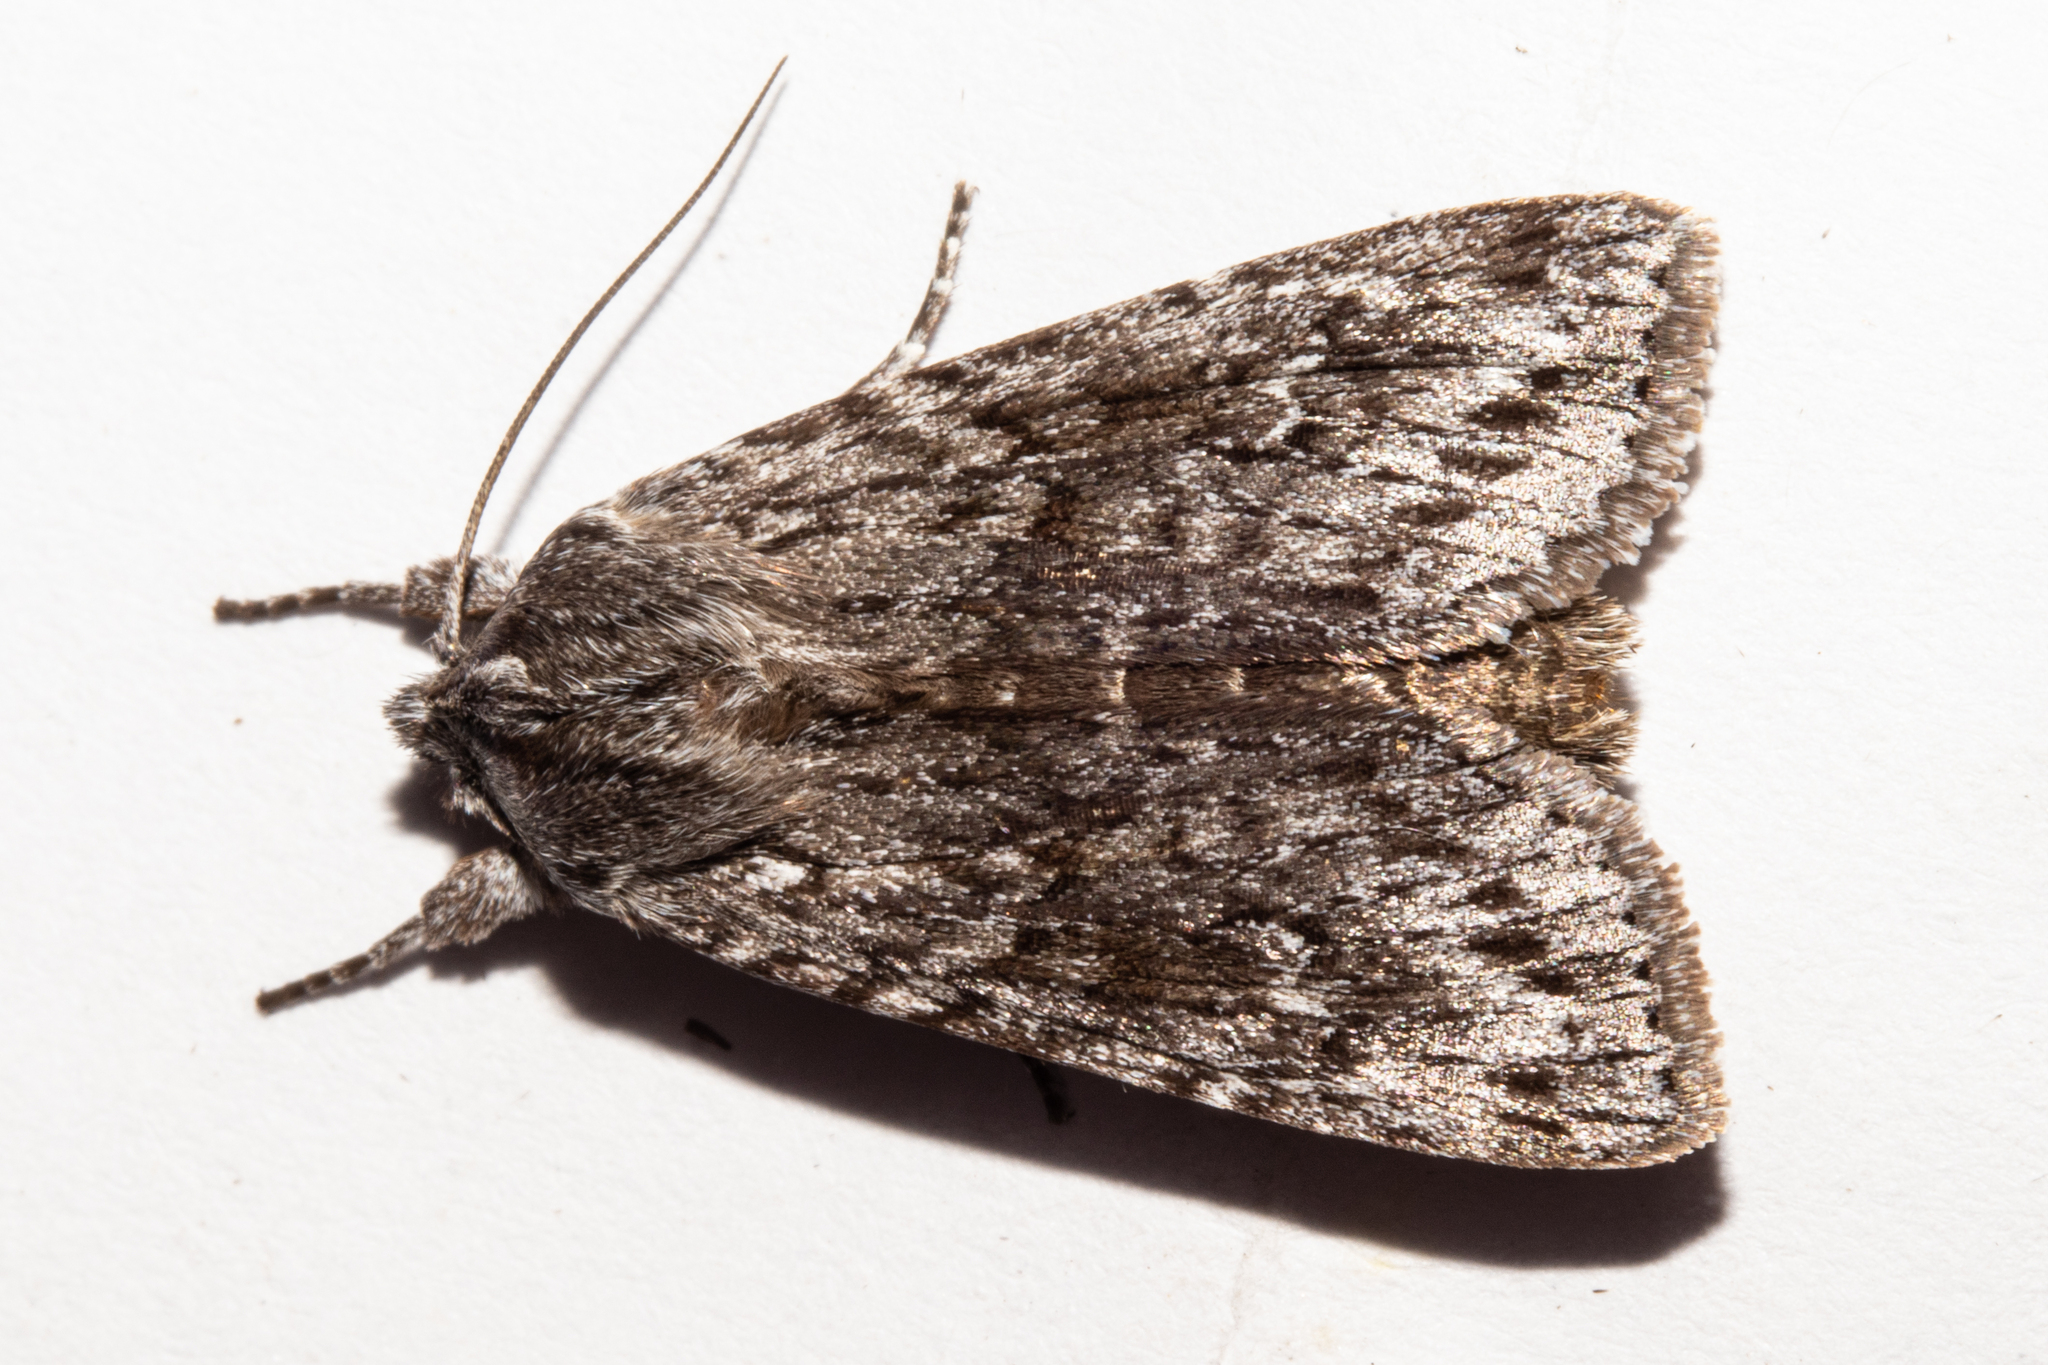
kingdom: Animalia
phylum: Arthropoda
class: Insecta
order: Lepidoptera
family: Noctuidae
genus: Physetica
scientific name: Physetica
